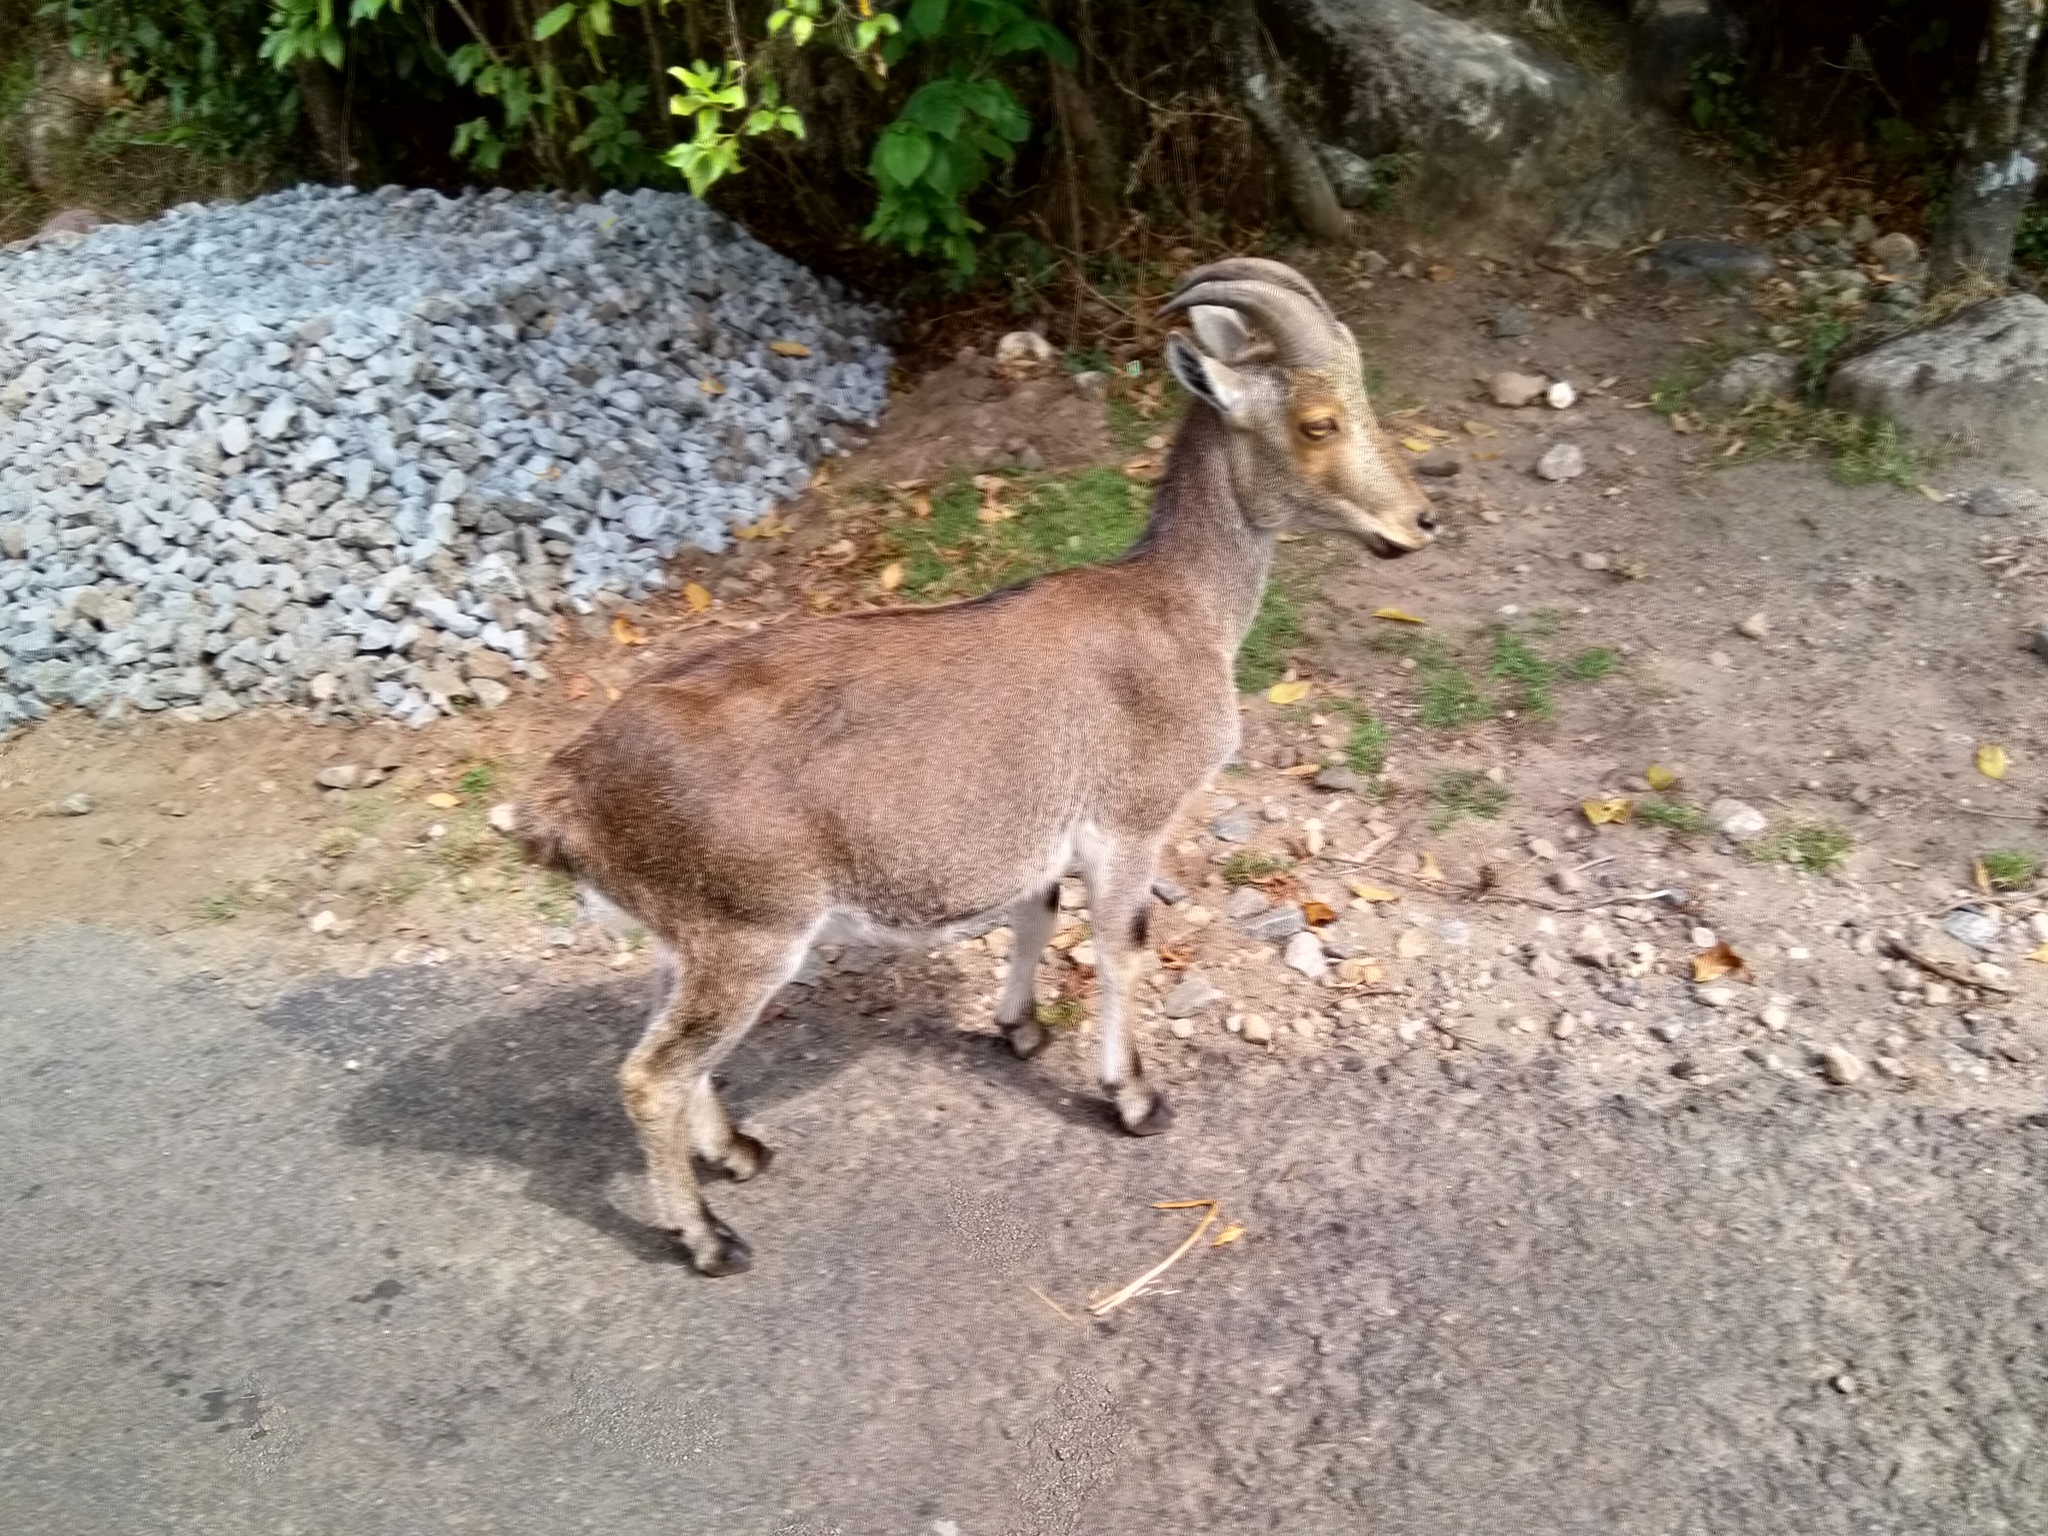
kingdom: Animalia
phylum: Chordata
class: Mammalia
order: Artiodactyla
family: Bovidae
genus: Hemitragus
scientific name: Hemitragus hylocrius
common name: Nilgiri tahr
